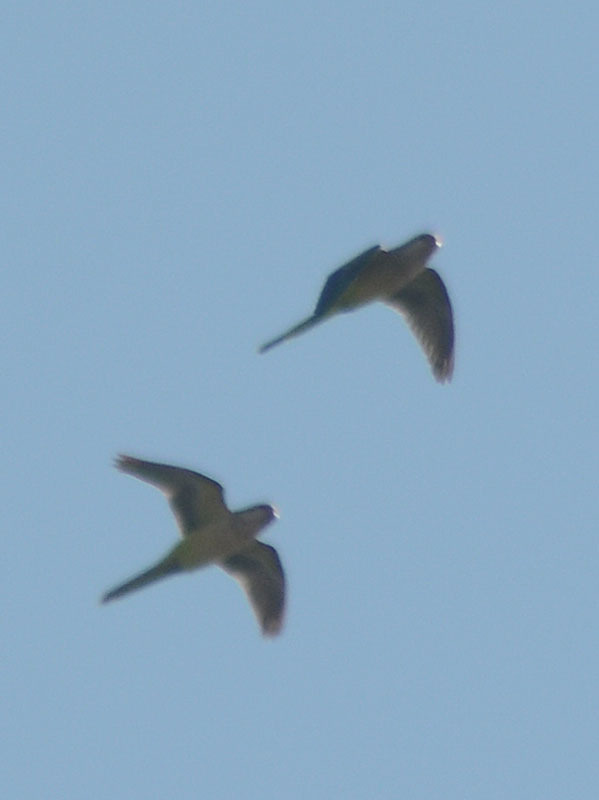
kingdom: Animalia
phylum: Chordata
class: Aves
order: Psittaciformes
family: Psittacidae
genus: Myiopsitta
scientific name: Myiopsitta monachus
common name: Monk parakeet
